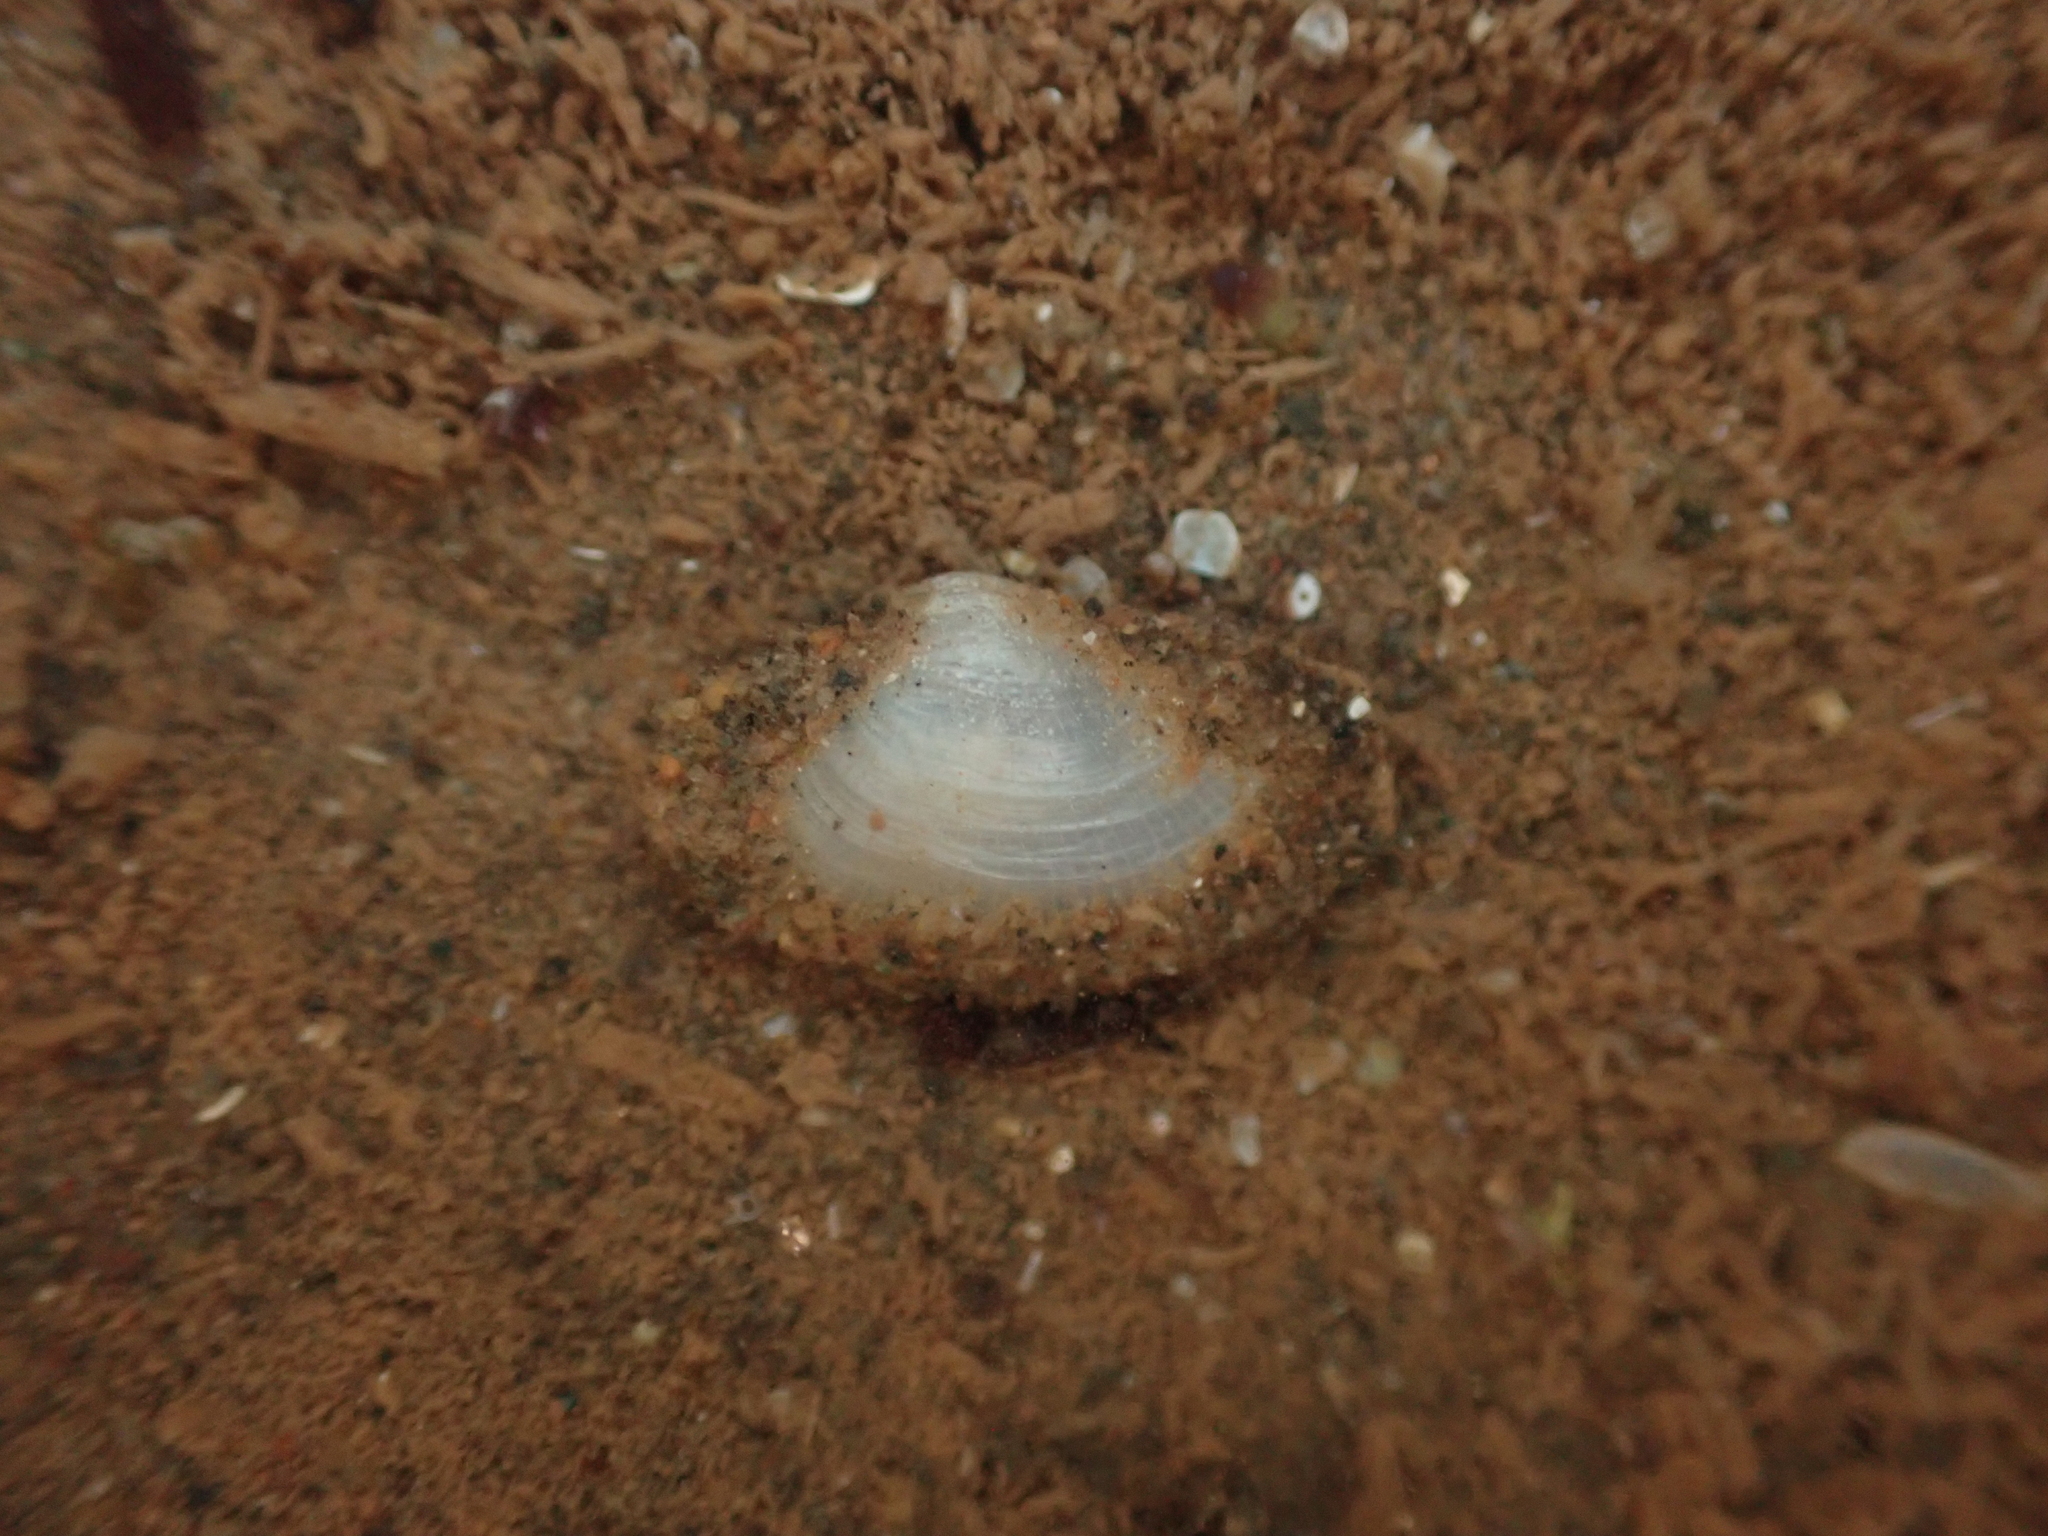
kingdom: Animalia
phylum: Mollusca
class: Bivalvia
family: Lyonsiidae
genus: Lyonsia
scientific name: Lyonsia hyalina
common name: Glassy lyonsia
